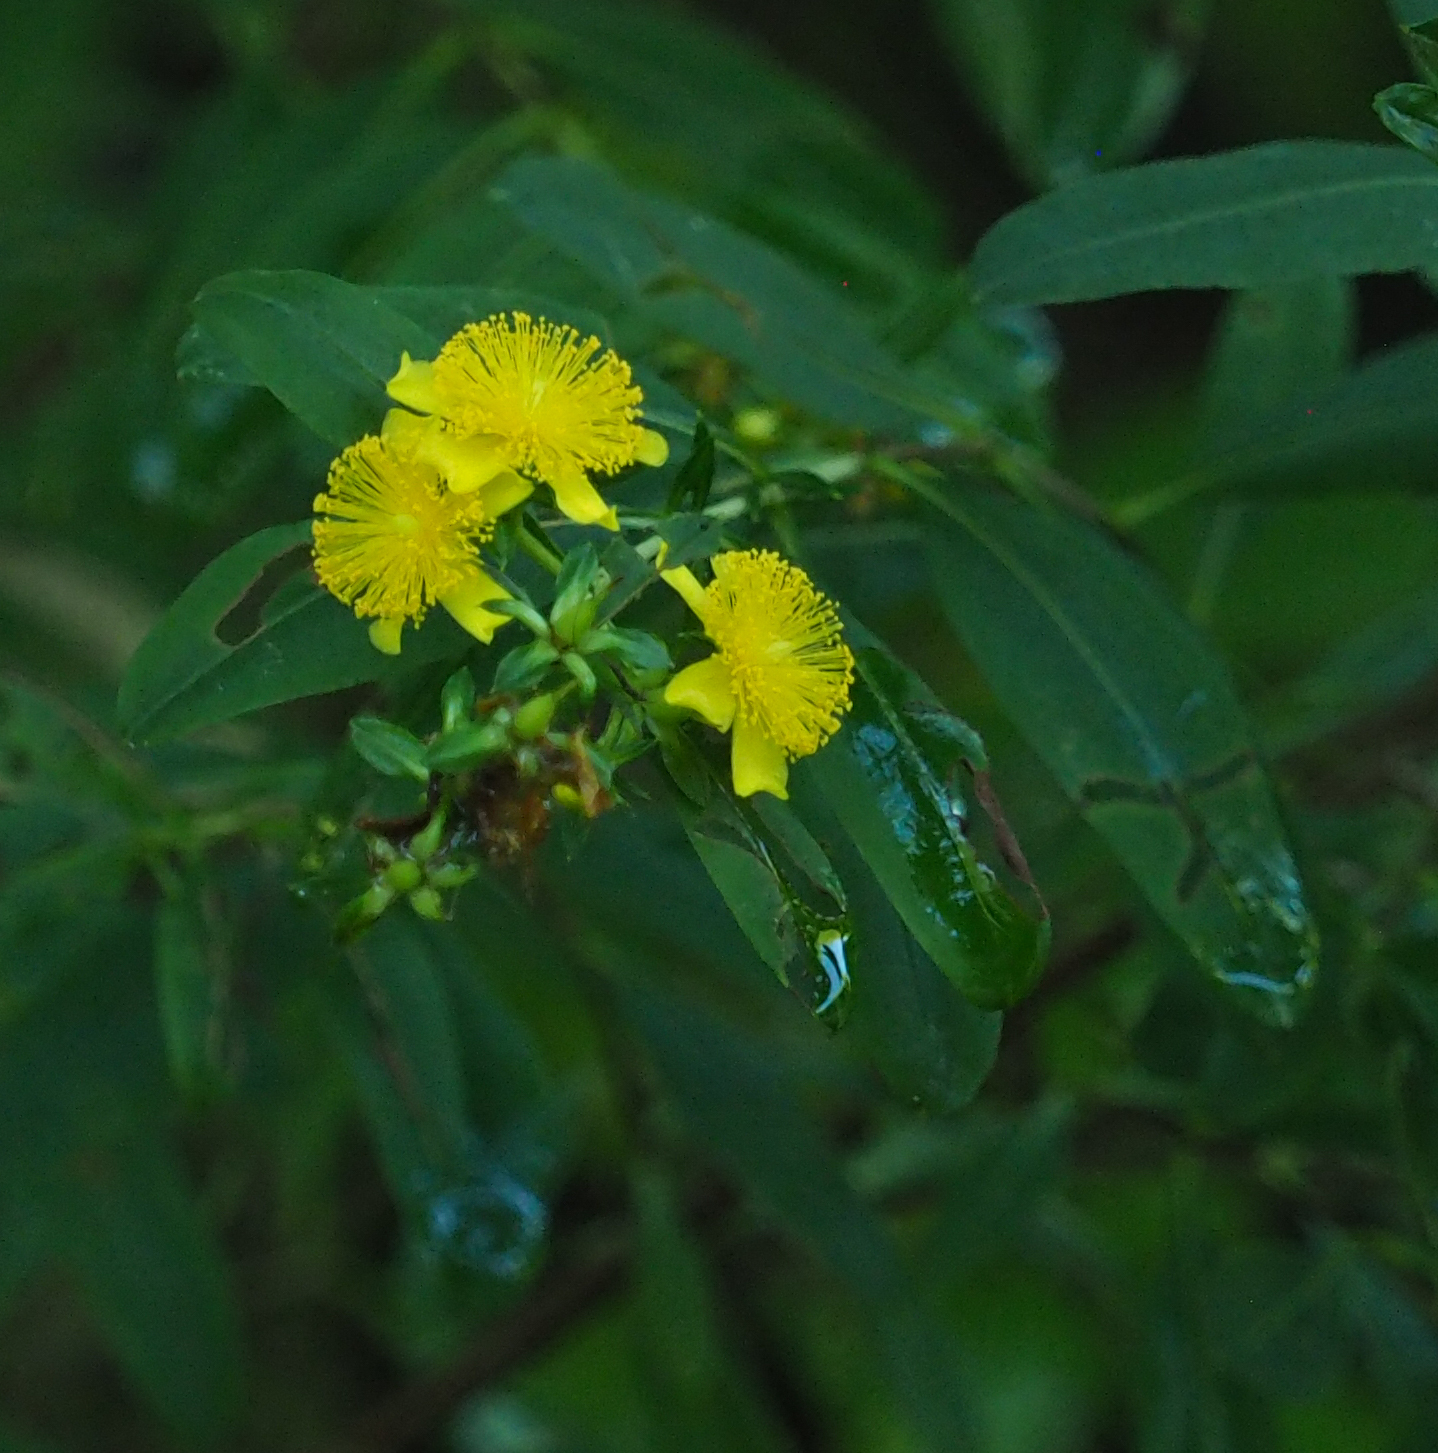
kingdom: Plantae
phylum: Tracheophyta
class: Magnoliopsida
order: Malpighiales
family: Hypericaceae
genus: Hypericum
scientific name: Hypericum prolificum
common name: Shrubby st. john's-wort
